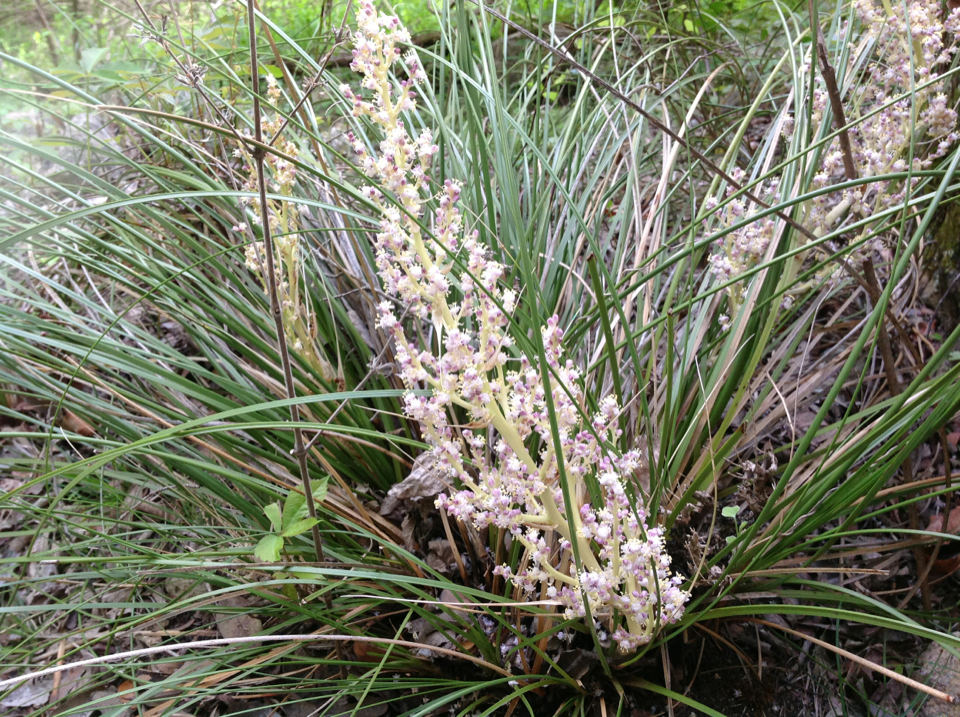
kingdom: Plantae
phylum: Tracheophyta
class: Liliopsida
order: Asparagales
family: Asparagaceae
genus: Nolina
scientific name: Nolina texana
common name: Texas sacahuiste
